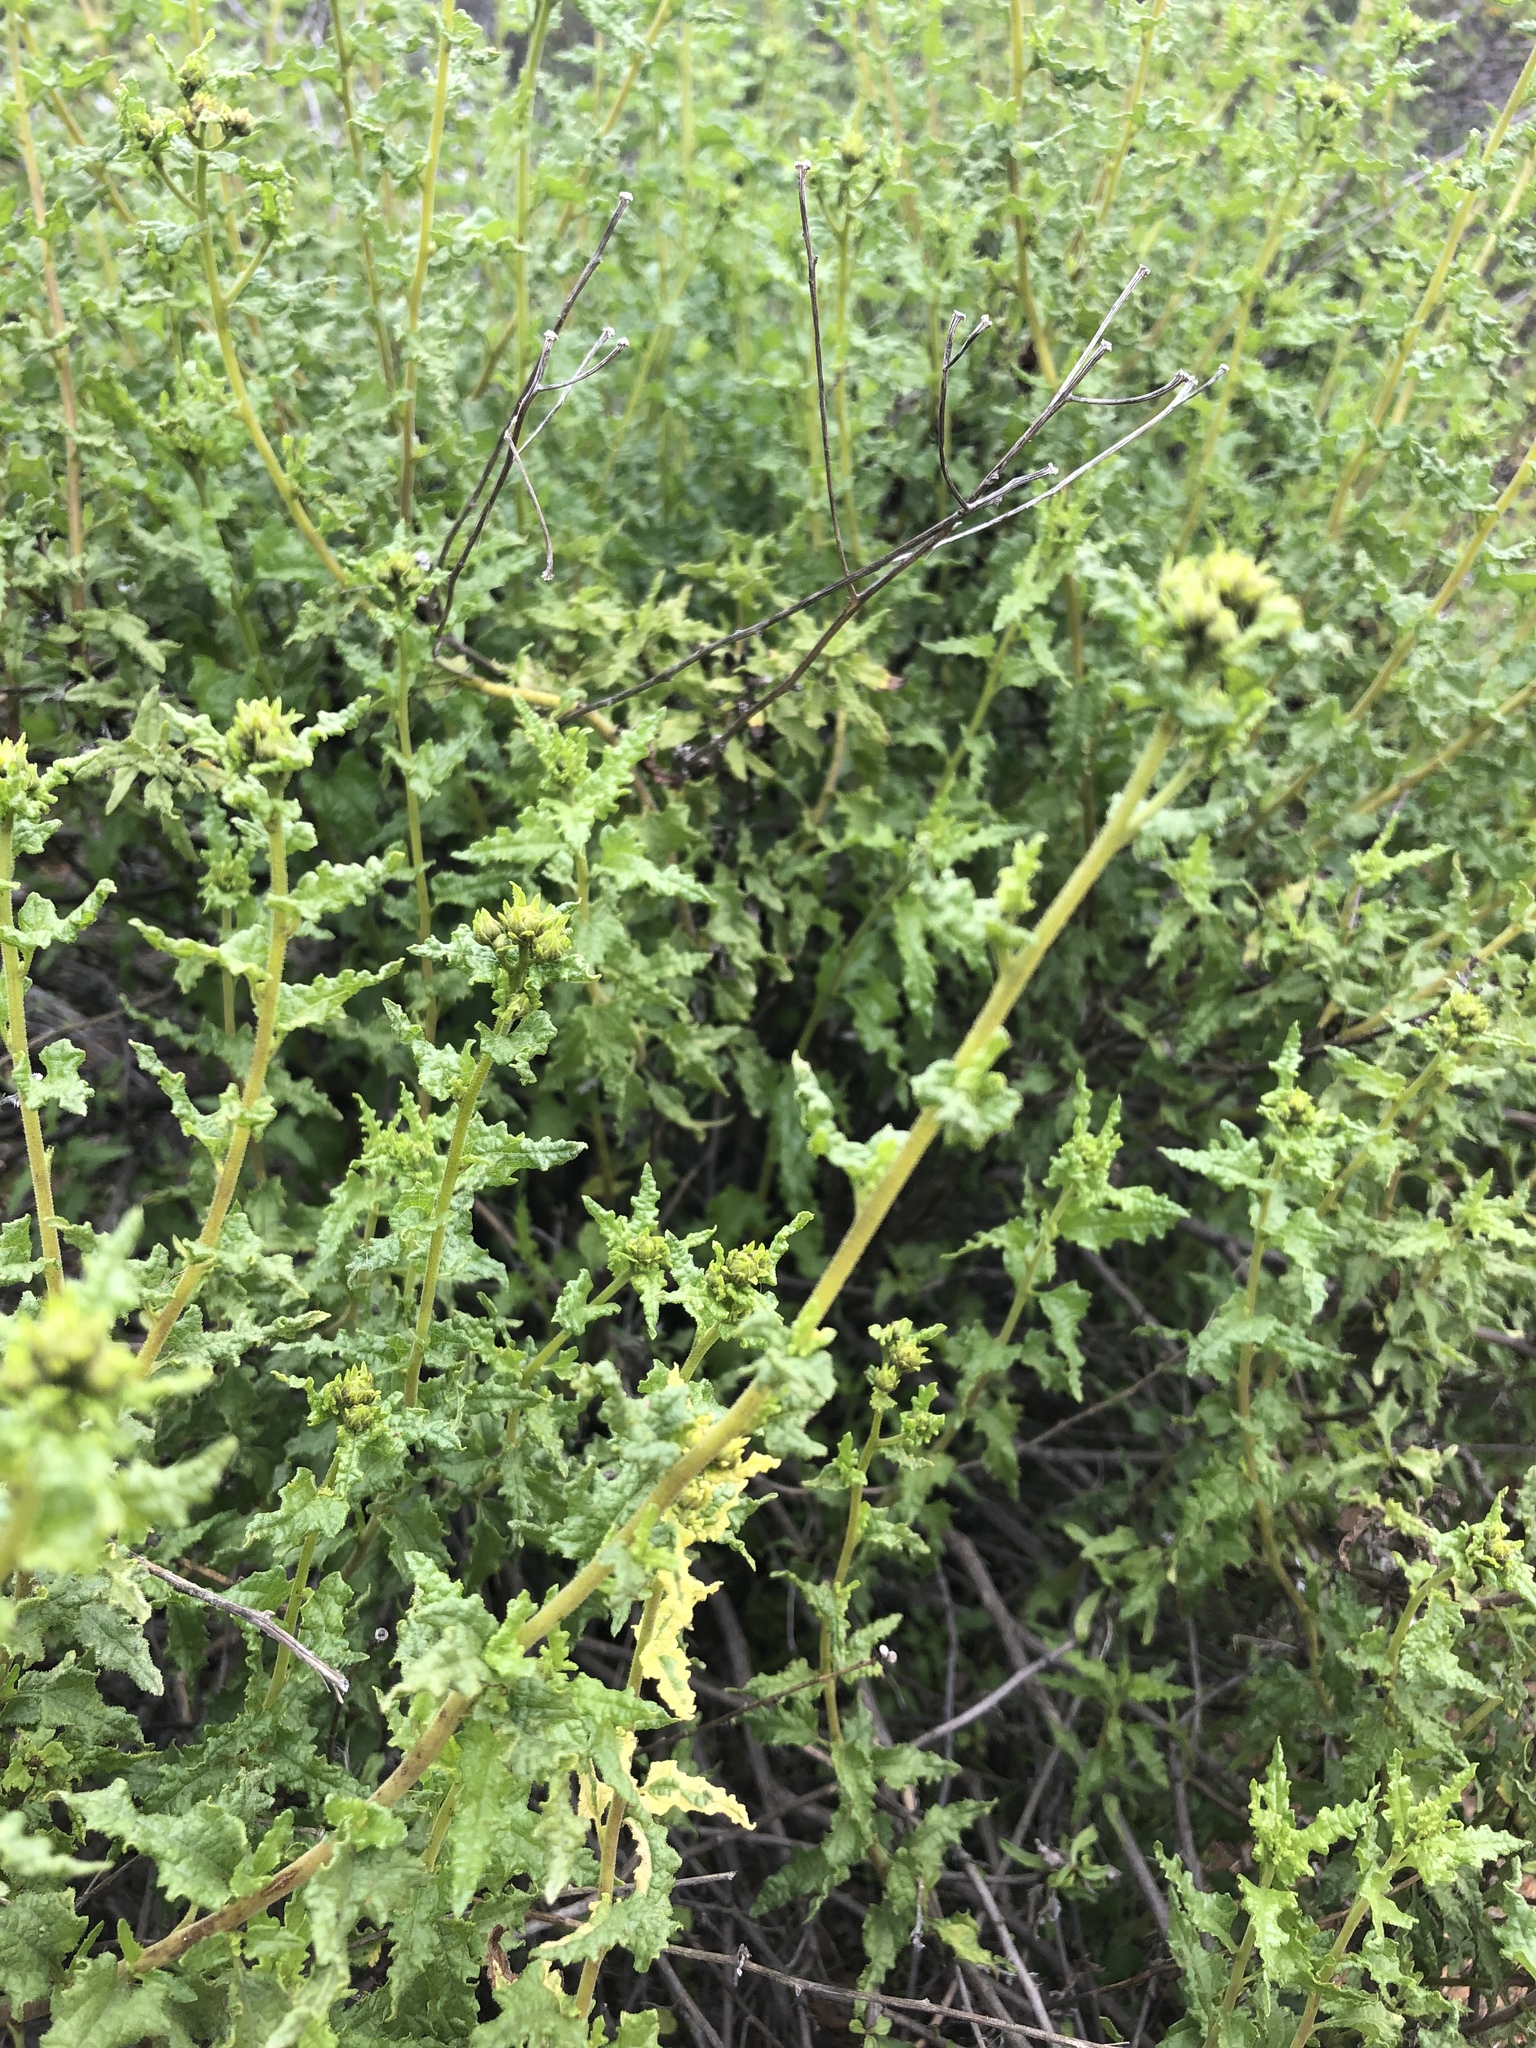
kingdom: Plantae
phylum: Tracheophyta
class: Magnoliopsida
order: Asterales
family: Asteraceae
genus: Bahiopsis
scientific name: Bahiopsis laciniata
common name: San diego county viguiera
